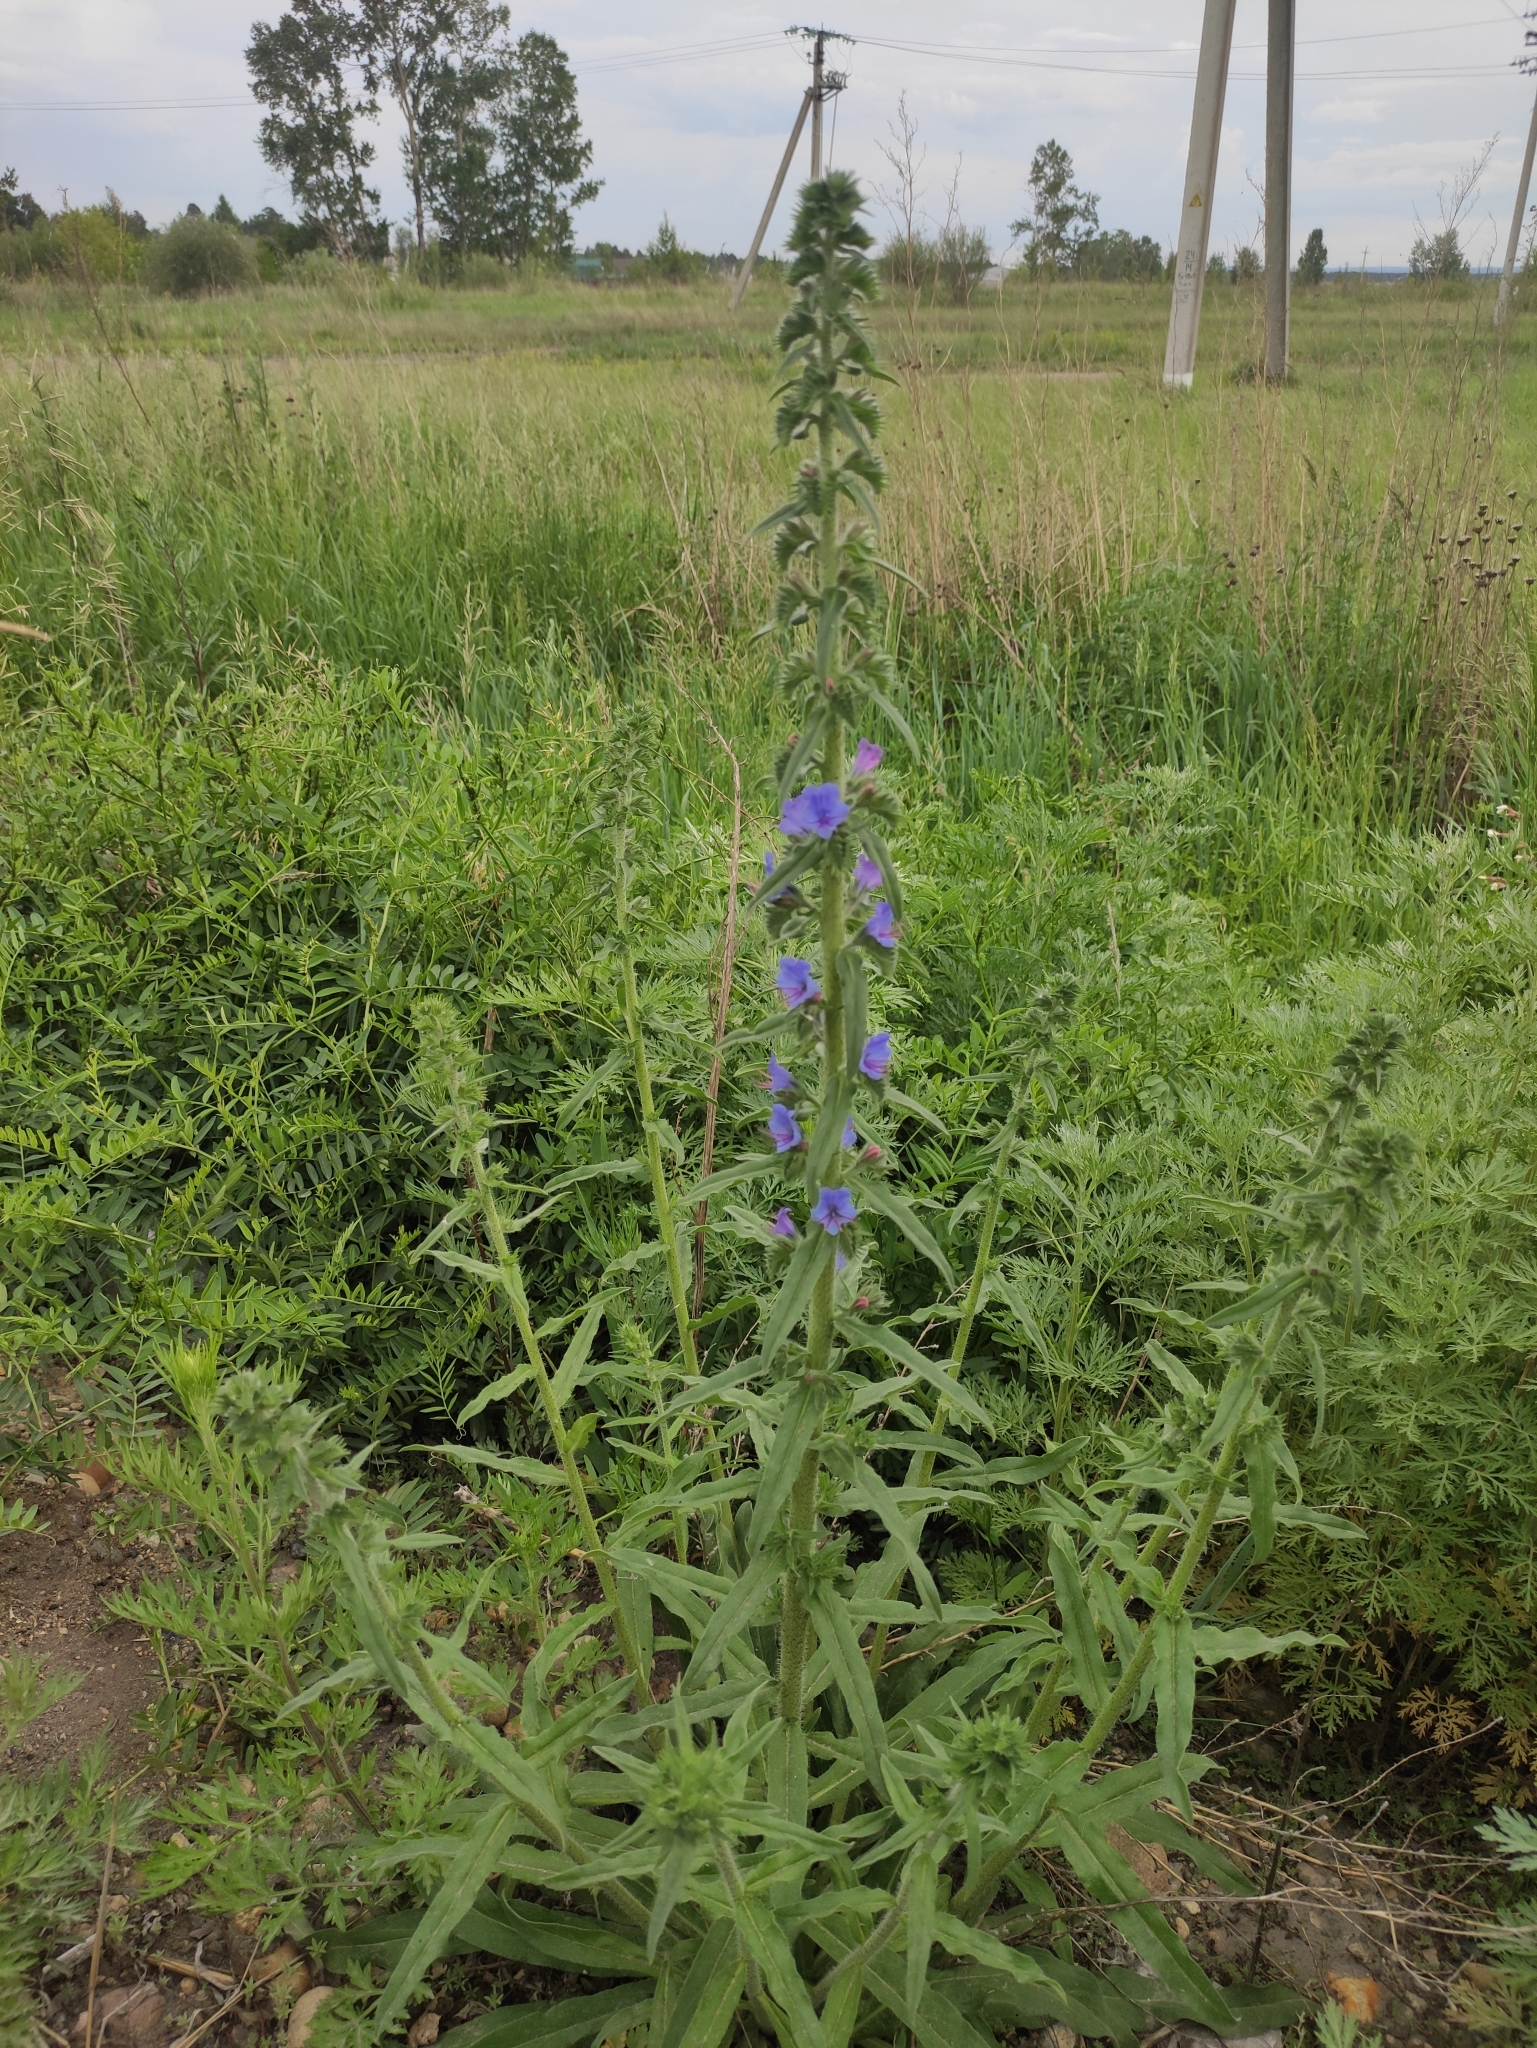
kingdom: Plantae
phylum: Tracheophyta
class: Magnoliopsida
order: Boraginales
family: Boraginaceae
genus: Echium
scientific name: Echium vulgare
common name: Common viper's bugloss
